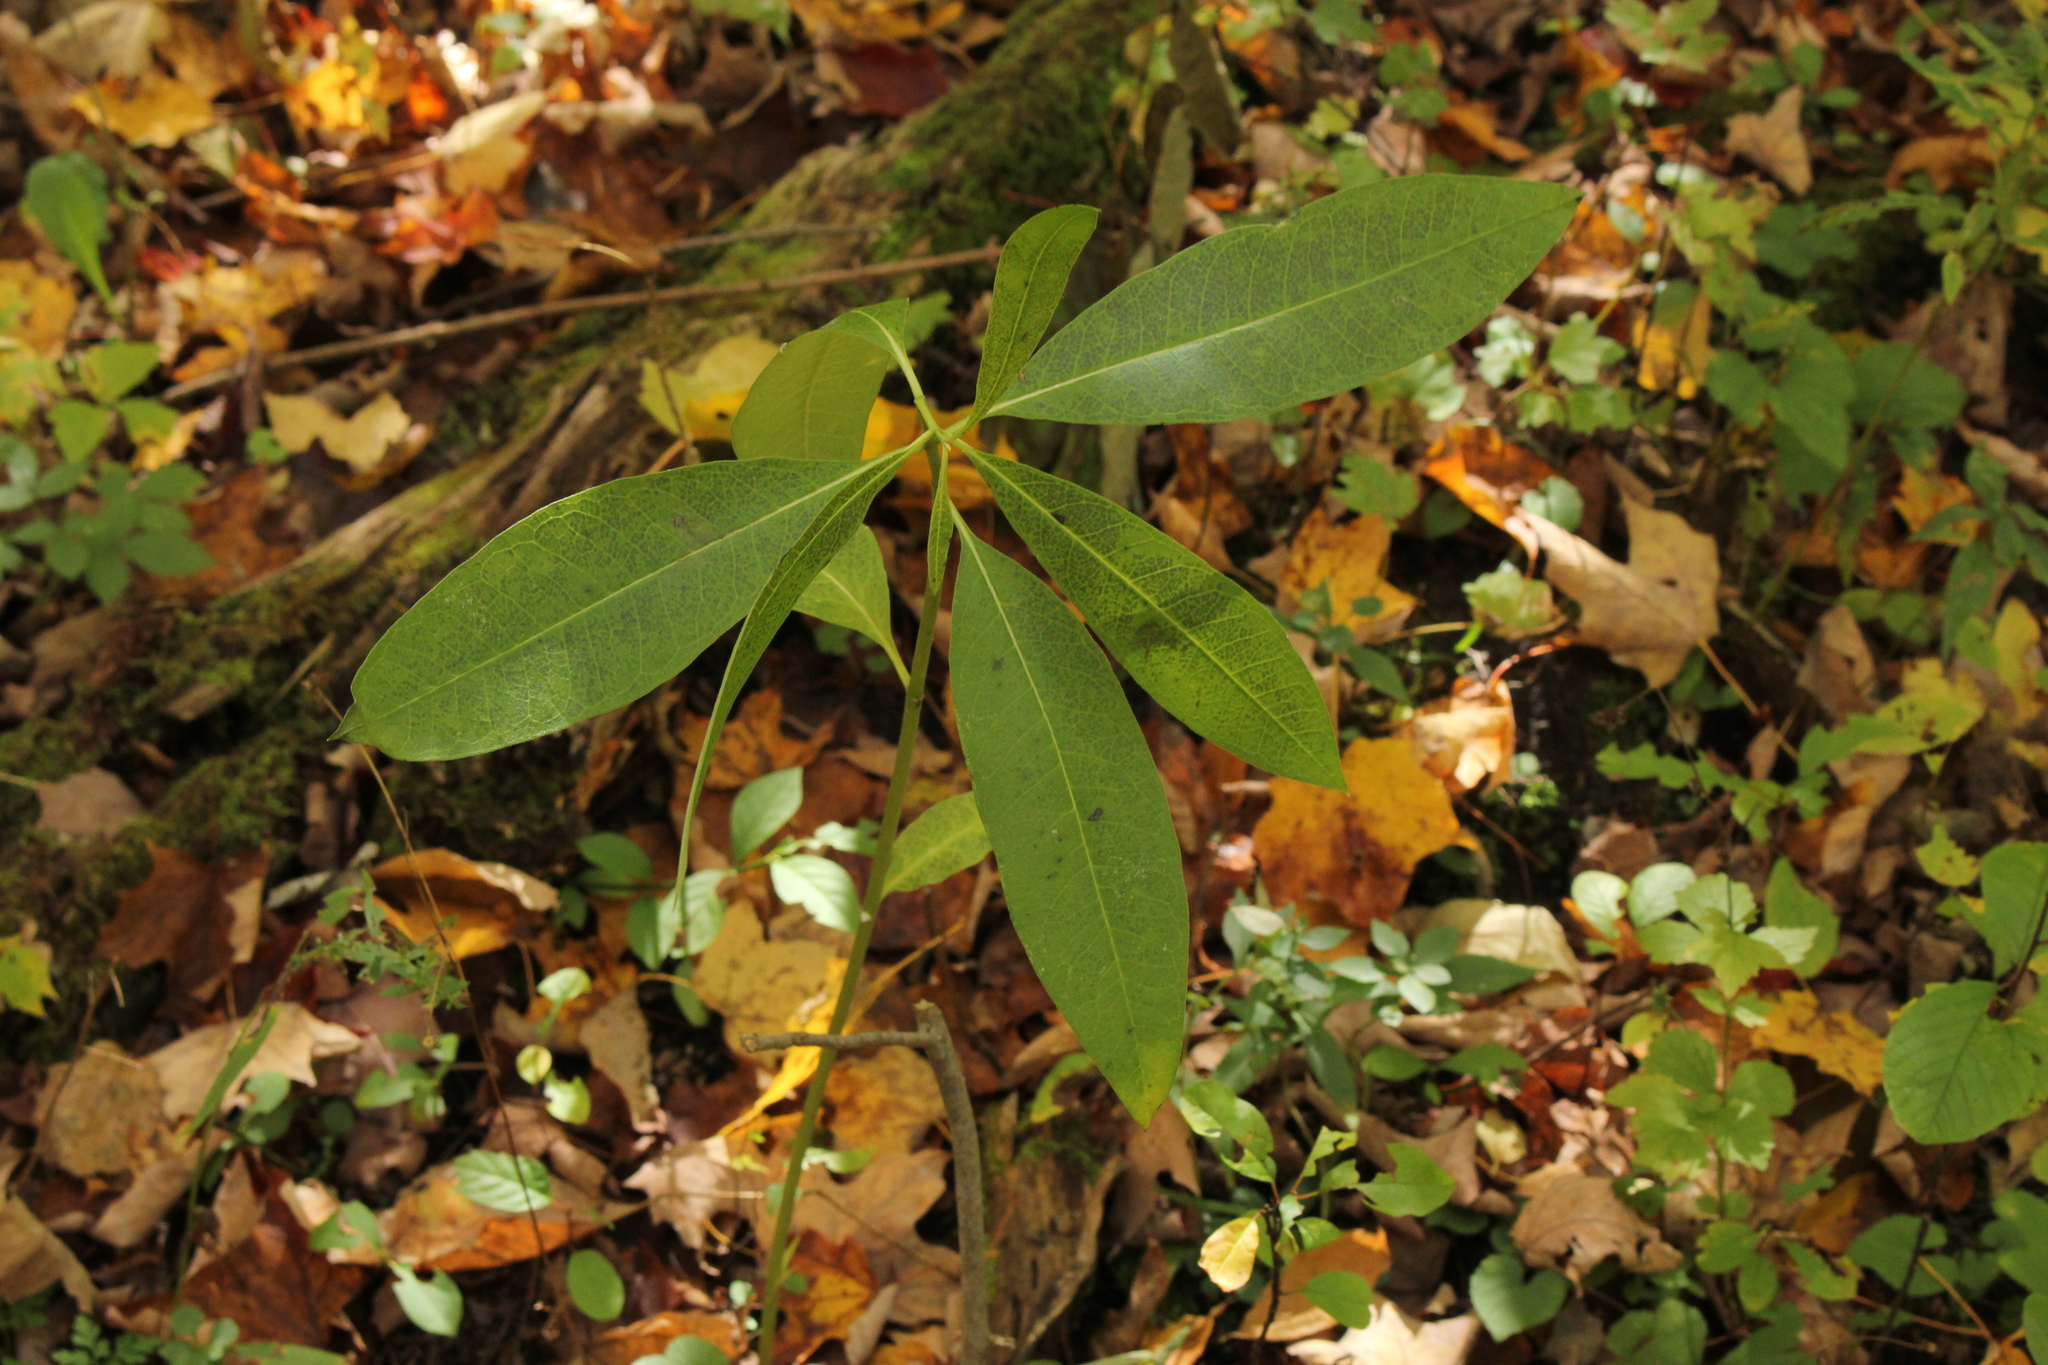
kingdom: Plantae
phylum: Tracheophyta
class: Magnoliopsida
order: Gentianales
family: Apocynaceae
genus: Asclepias
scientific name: Asclepias exaltata
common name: Poke milkweed
